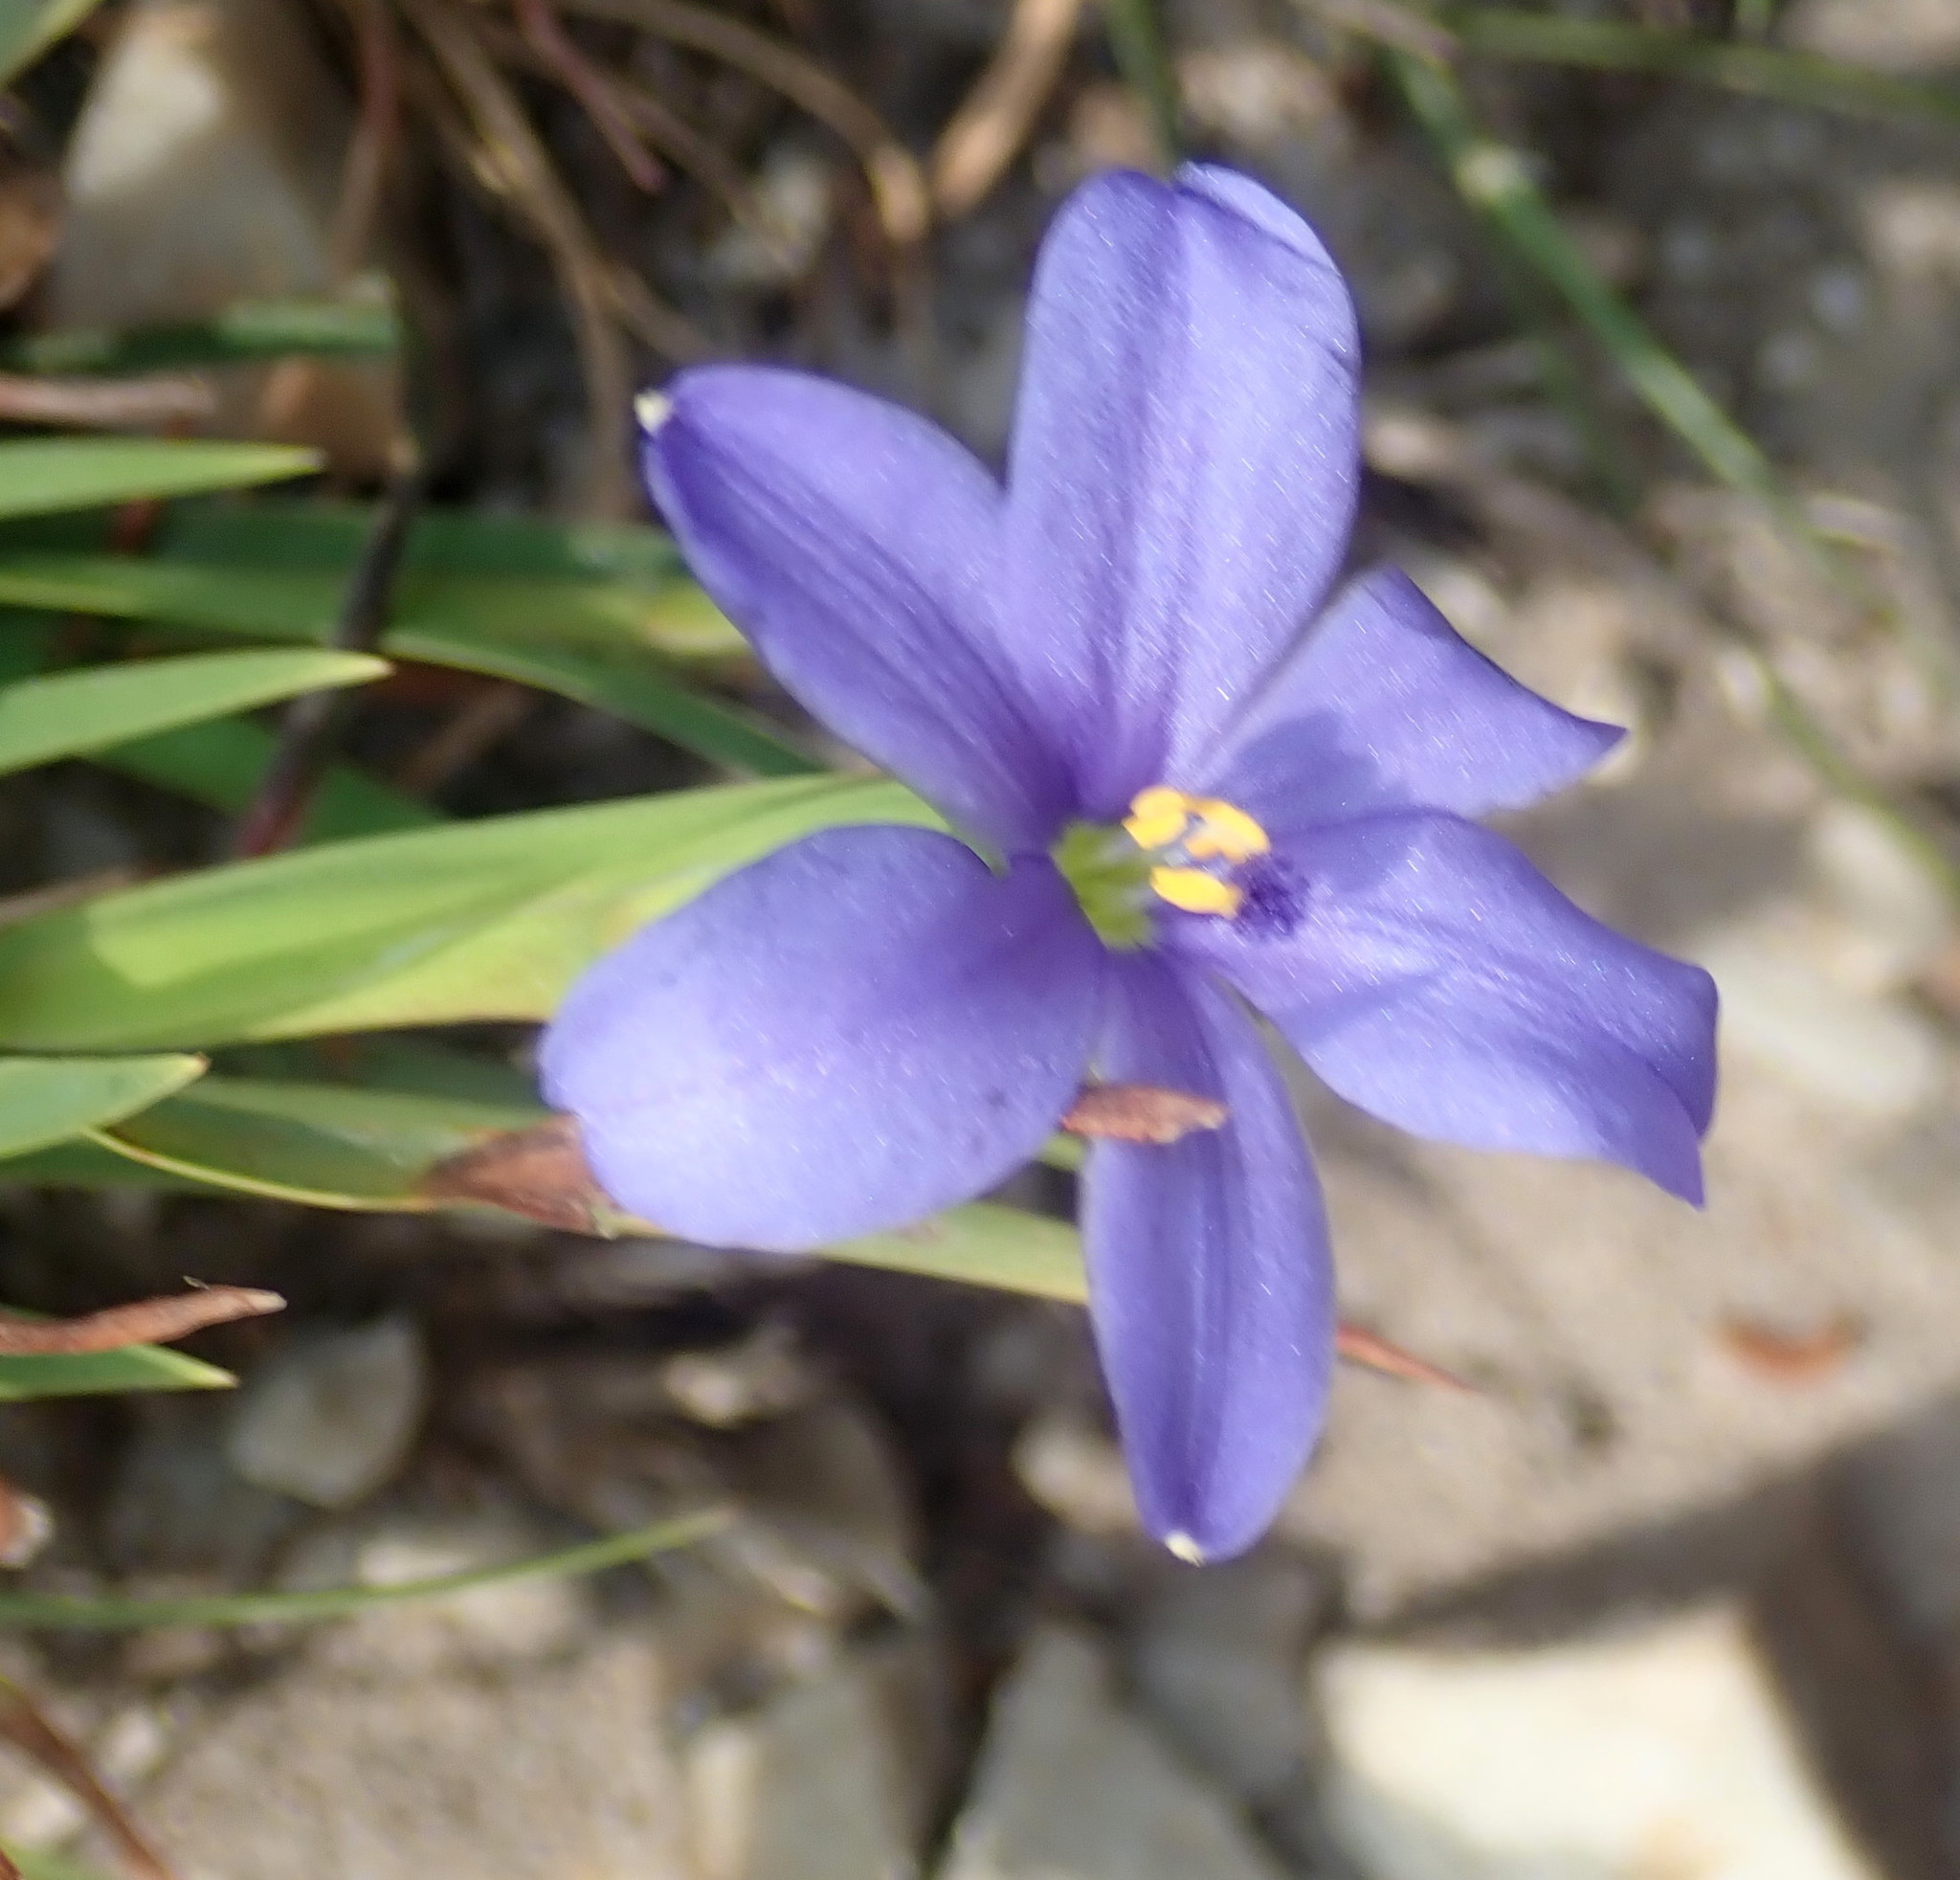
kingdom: Plantae
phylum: Tracheophyta
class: Liliopsida
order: Asparagales
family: Iridaceae
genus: Aristea
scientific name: Aristea pusilla
